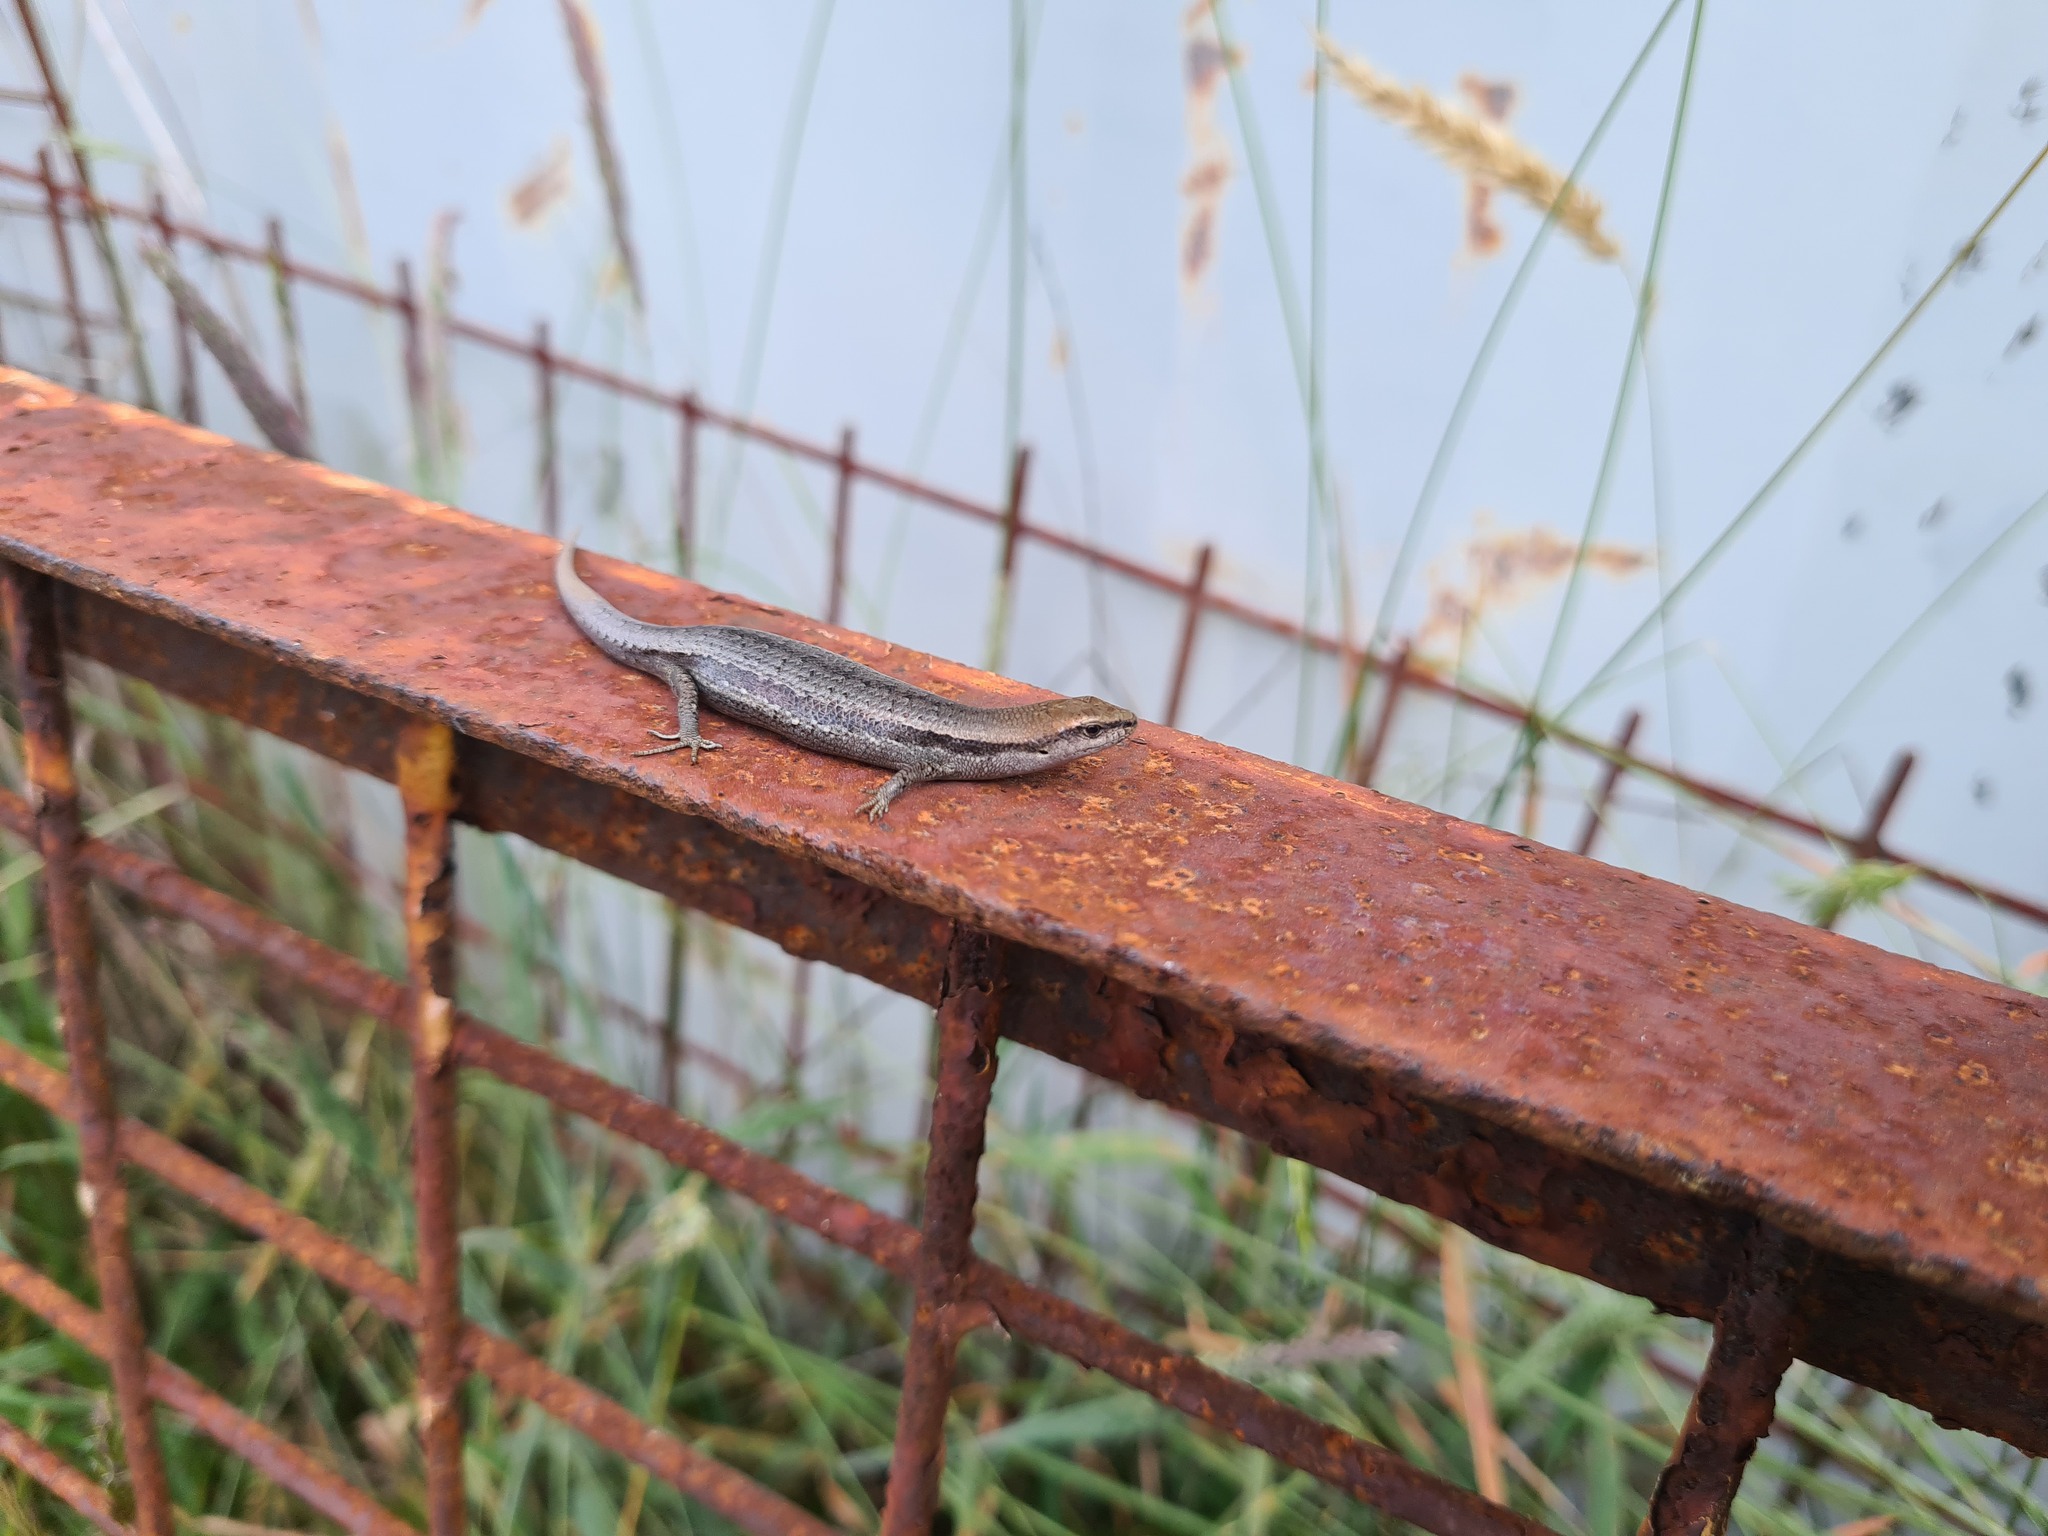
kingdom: Animalia
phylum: Chordata
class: Squamata
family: Scincidae
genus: Lampropholis
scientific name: Lampropholis guichenoti
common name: Garden skink
